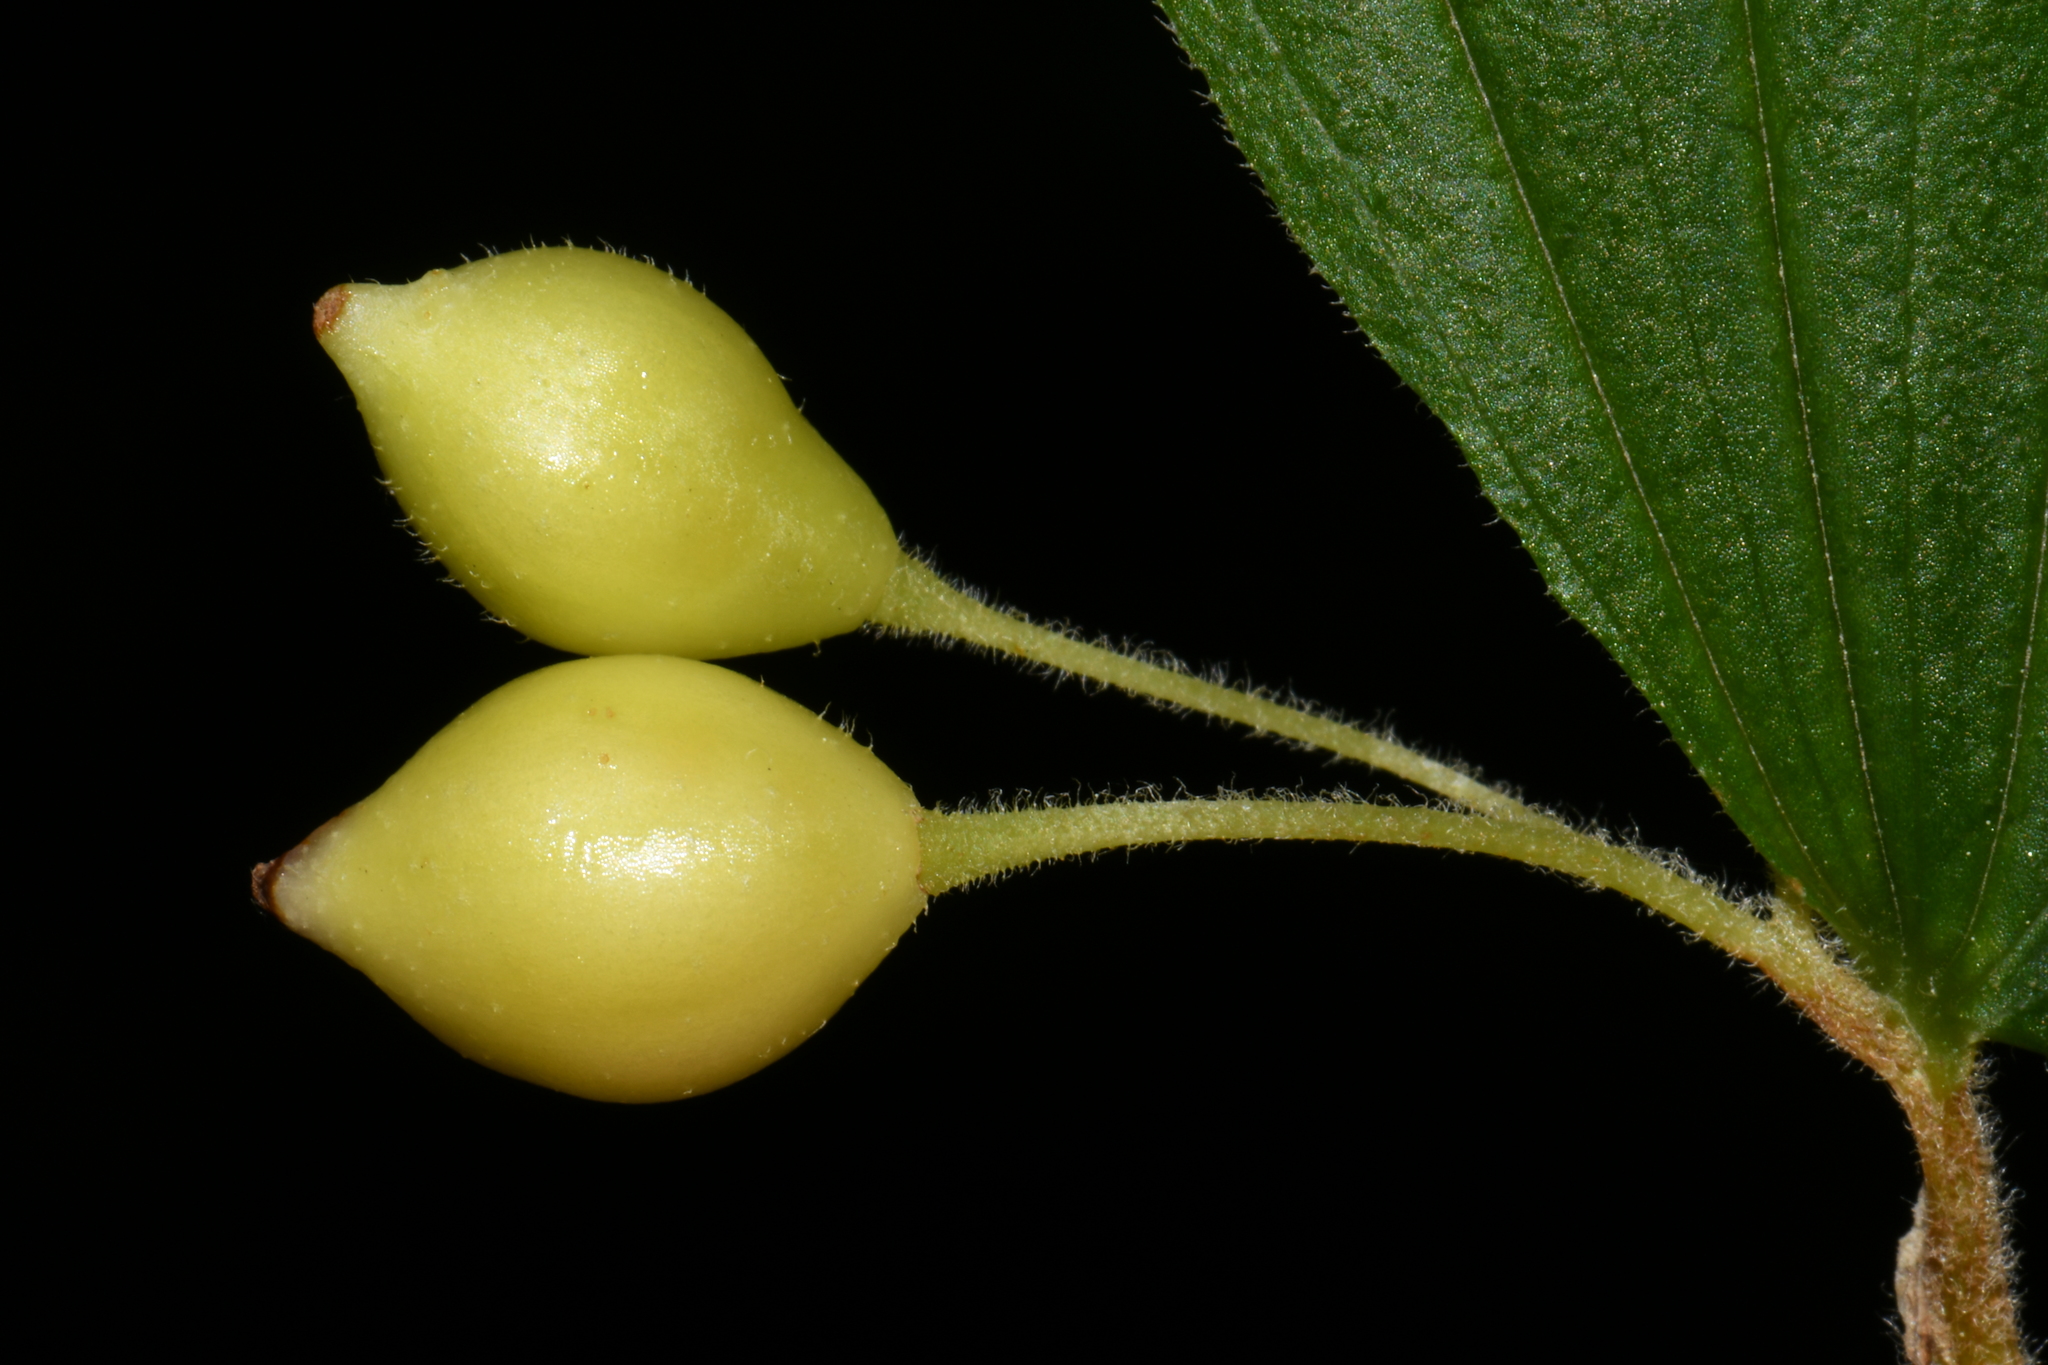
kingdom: Plantae
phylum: Tracheophyta
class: Liliopsida
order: Liliales
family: Liliaceae
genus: Prosartes
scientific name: Prosartes hookeri
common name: Fairy-bells
